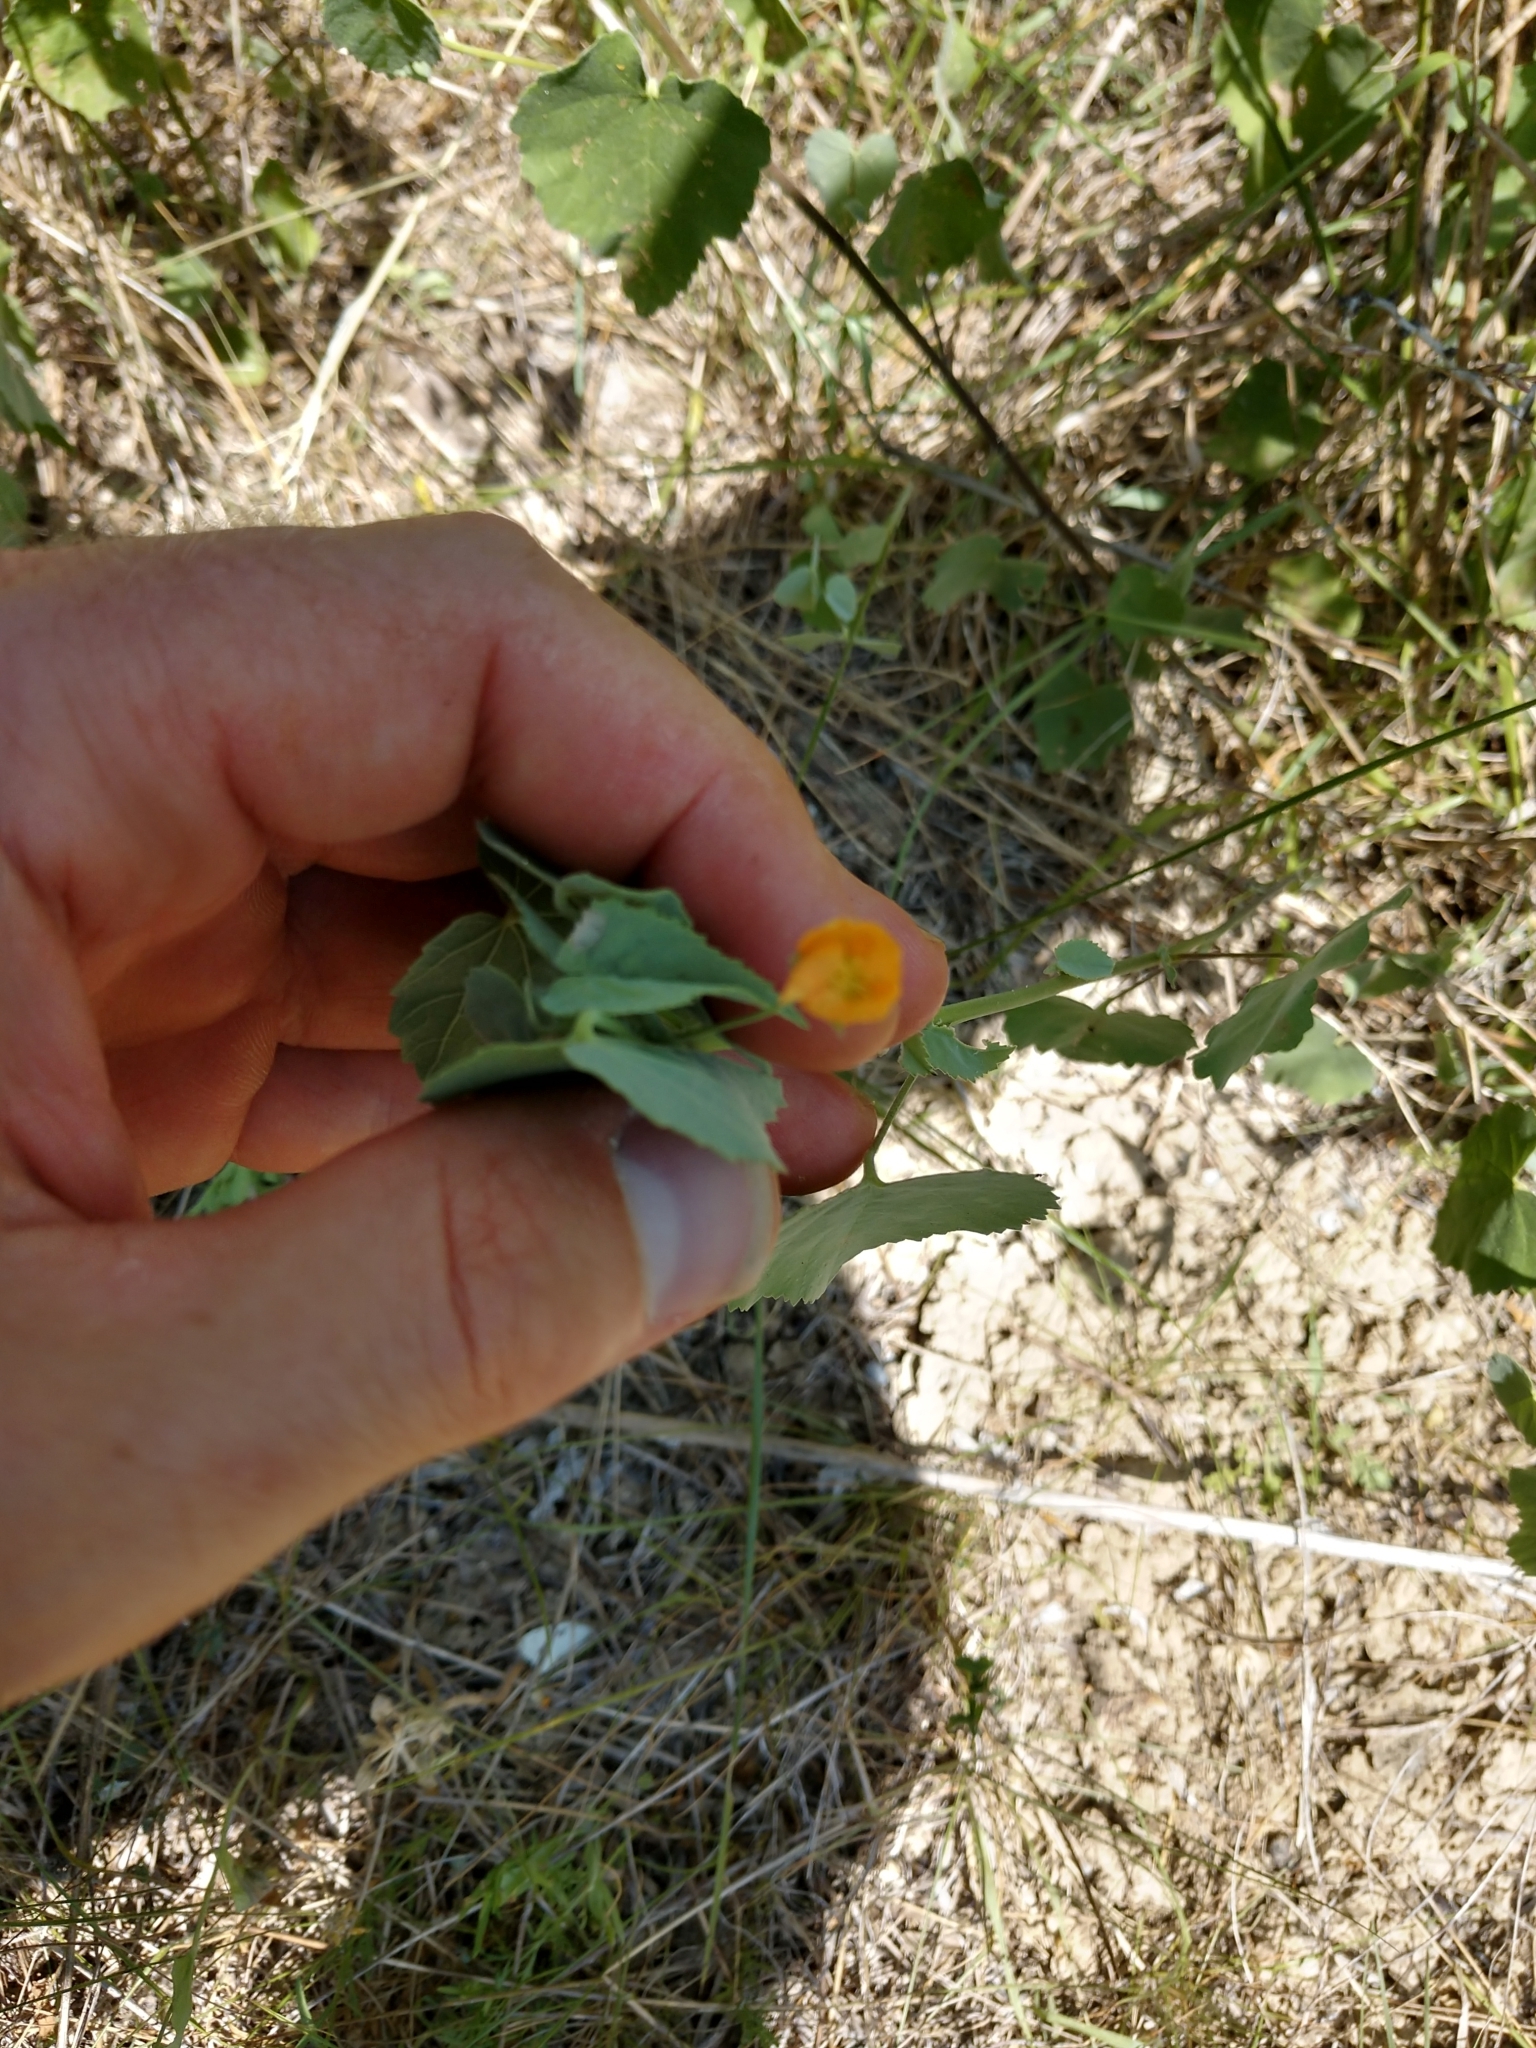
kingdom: Plantae
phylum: Tracheophyta
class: Magnoliopsida
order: Malvales
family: Malvaceae
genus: Abutilon
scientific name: Abutilon fruticosum
